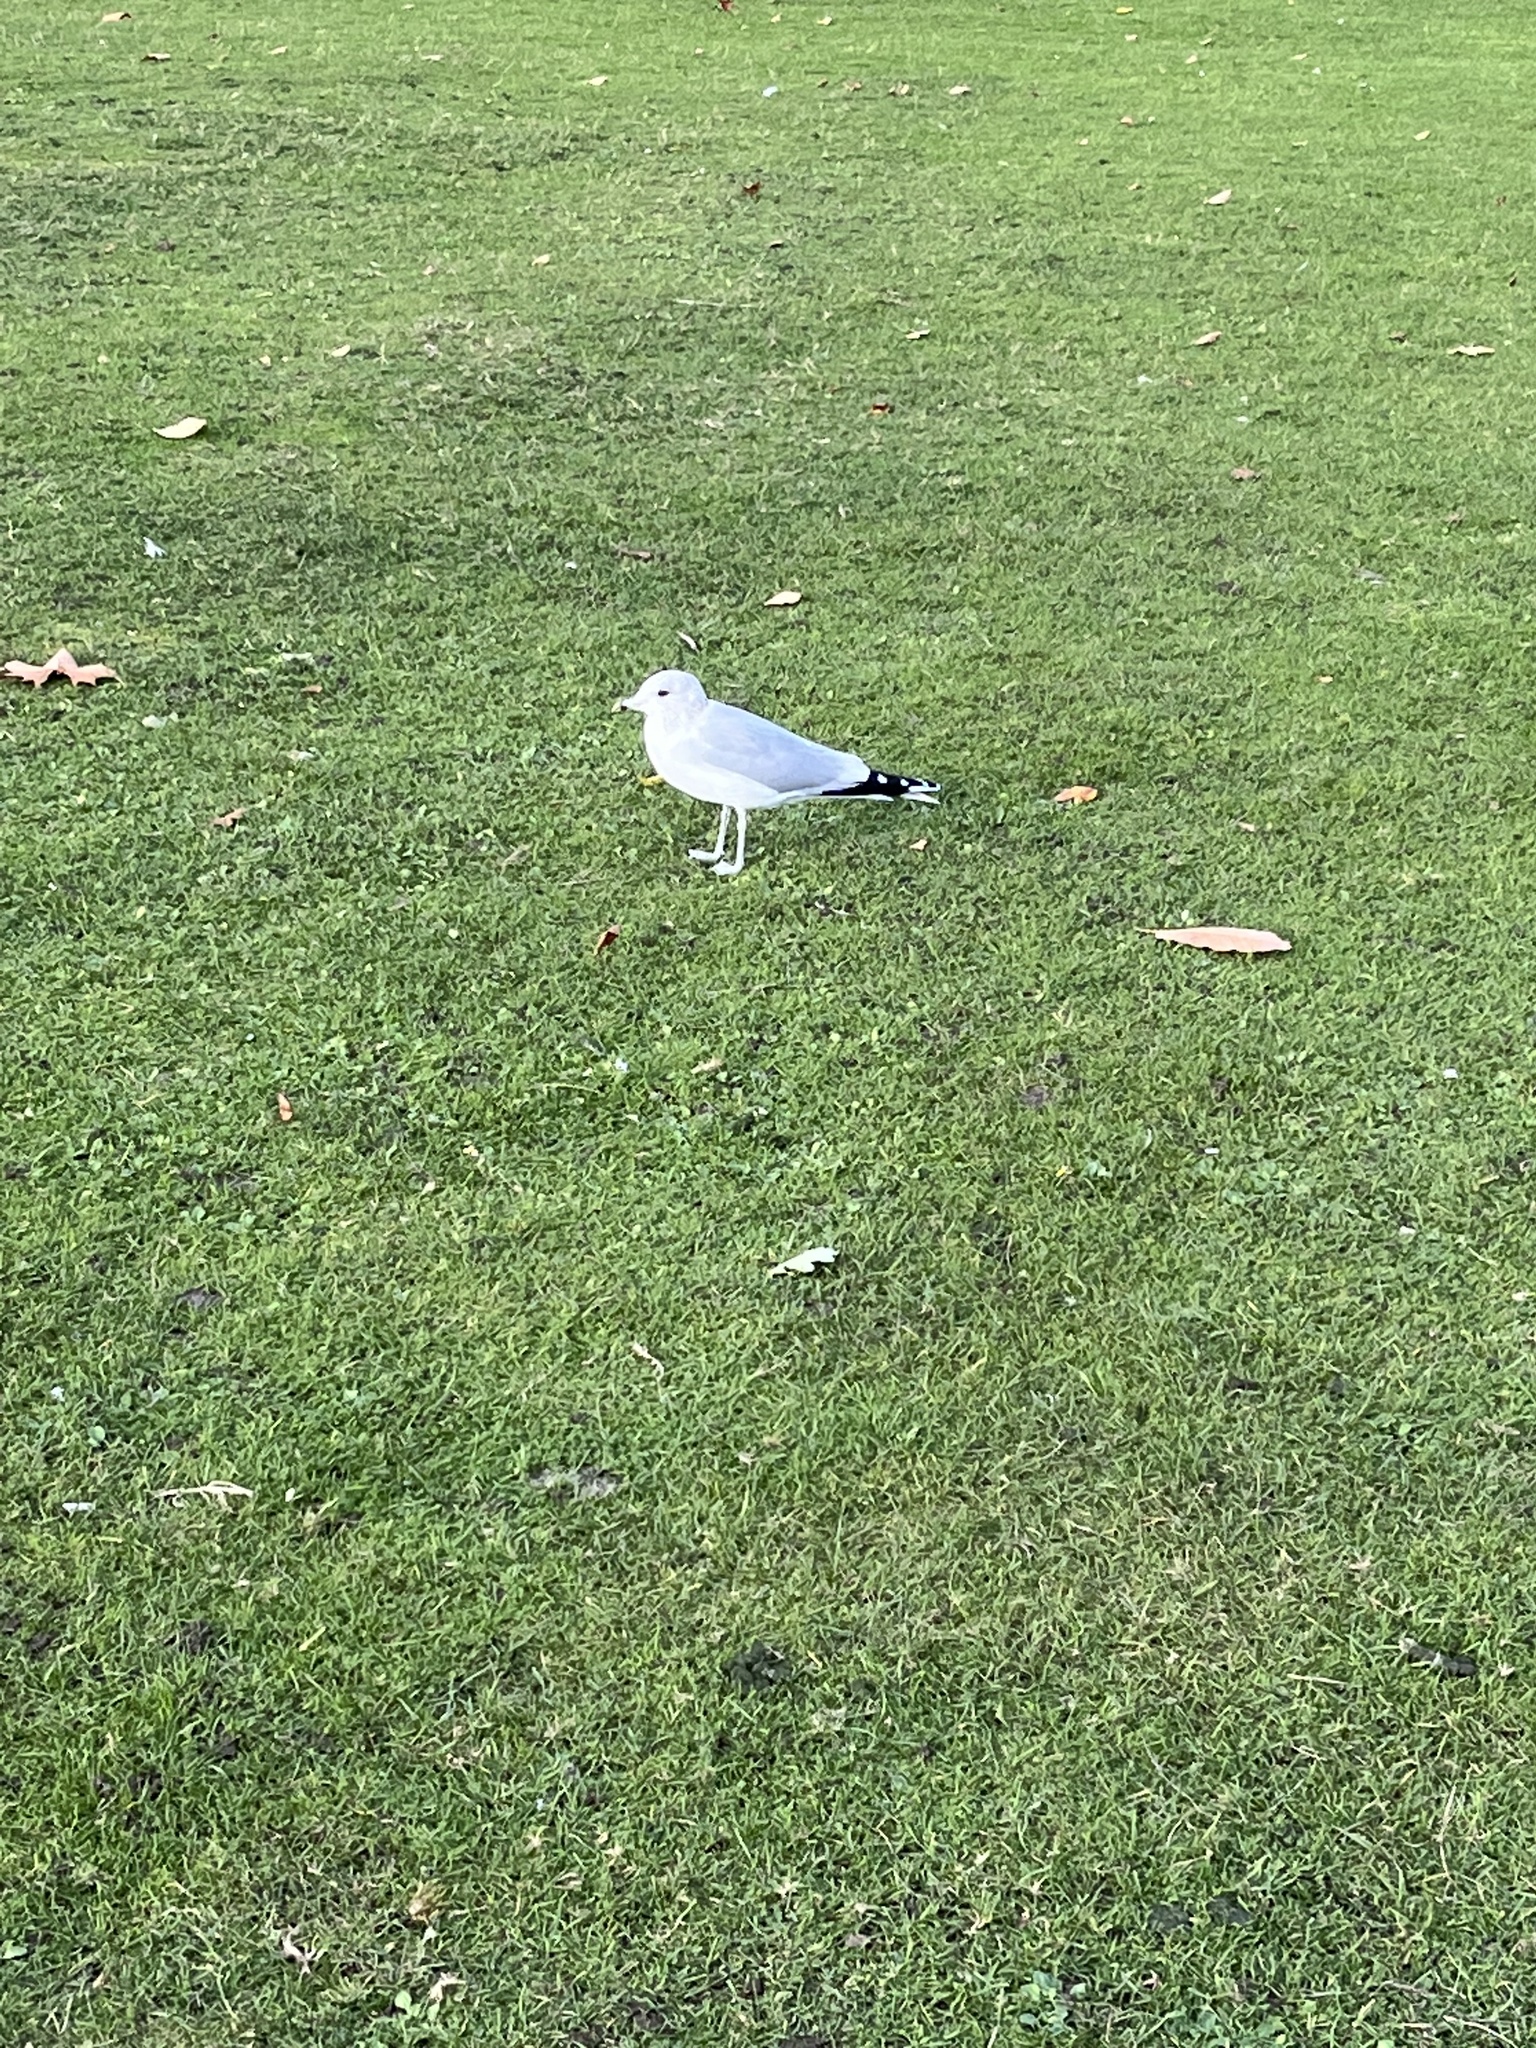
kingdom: Animalia
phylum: Chordata
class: Aves
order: Charadriiformes
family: Laridae
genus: Larus
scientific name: Larus canus
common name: Mew gull
